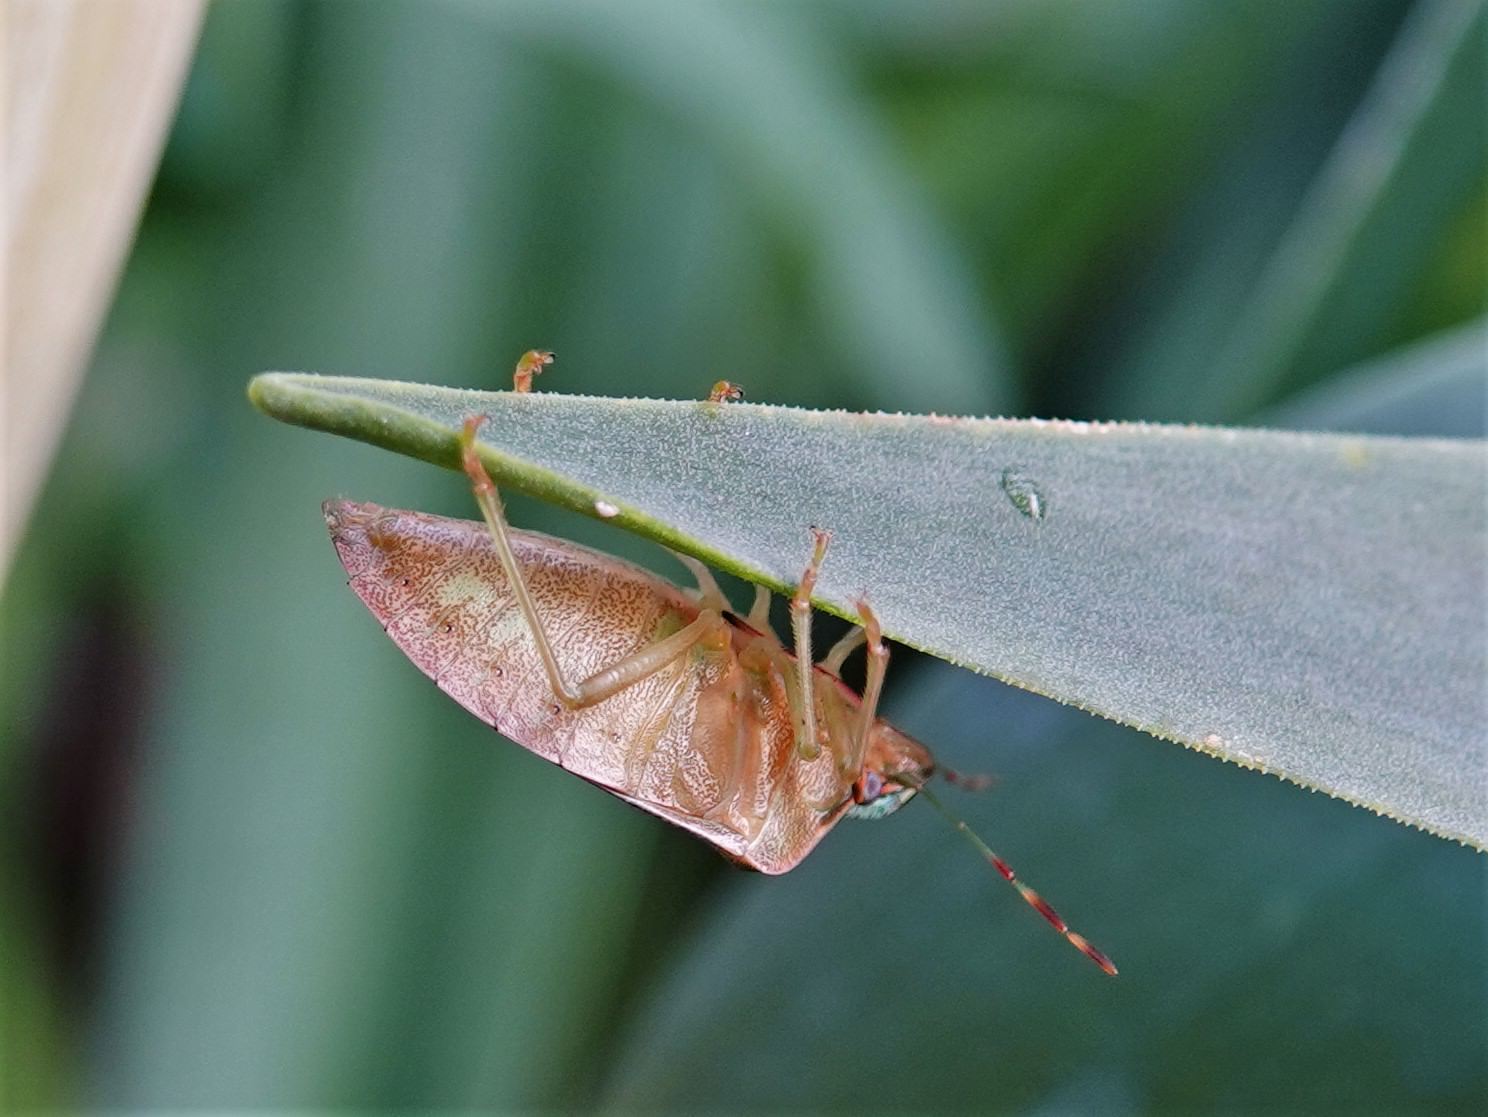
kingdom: Animalia
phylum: Arthropoda
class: Insecta
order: Hemiptera
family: Pentatomidae
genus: Nezara
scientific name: Nezara viridula
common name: Southern green stink bug
